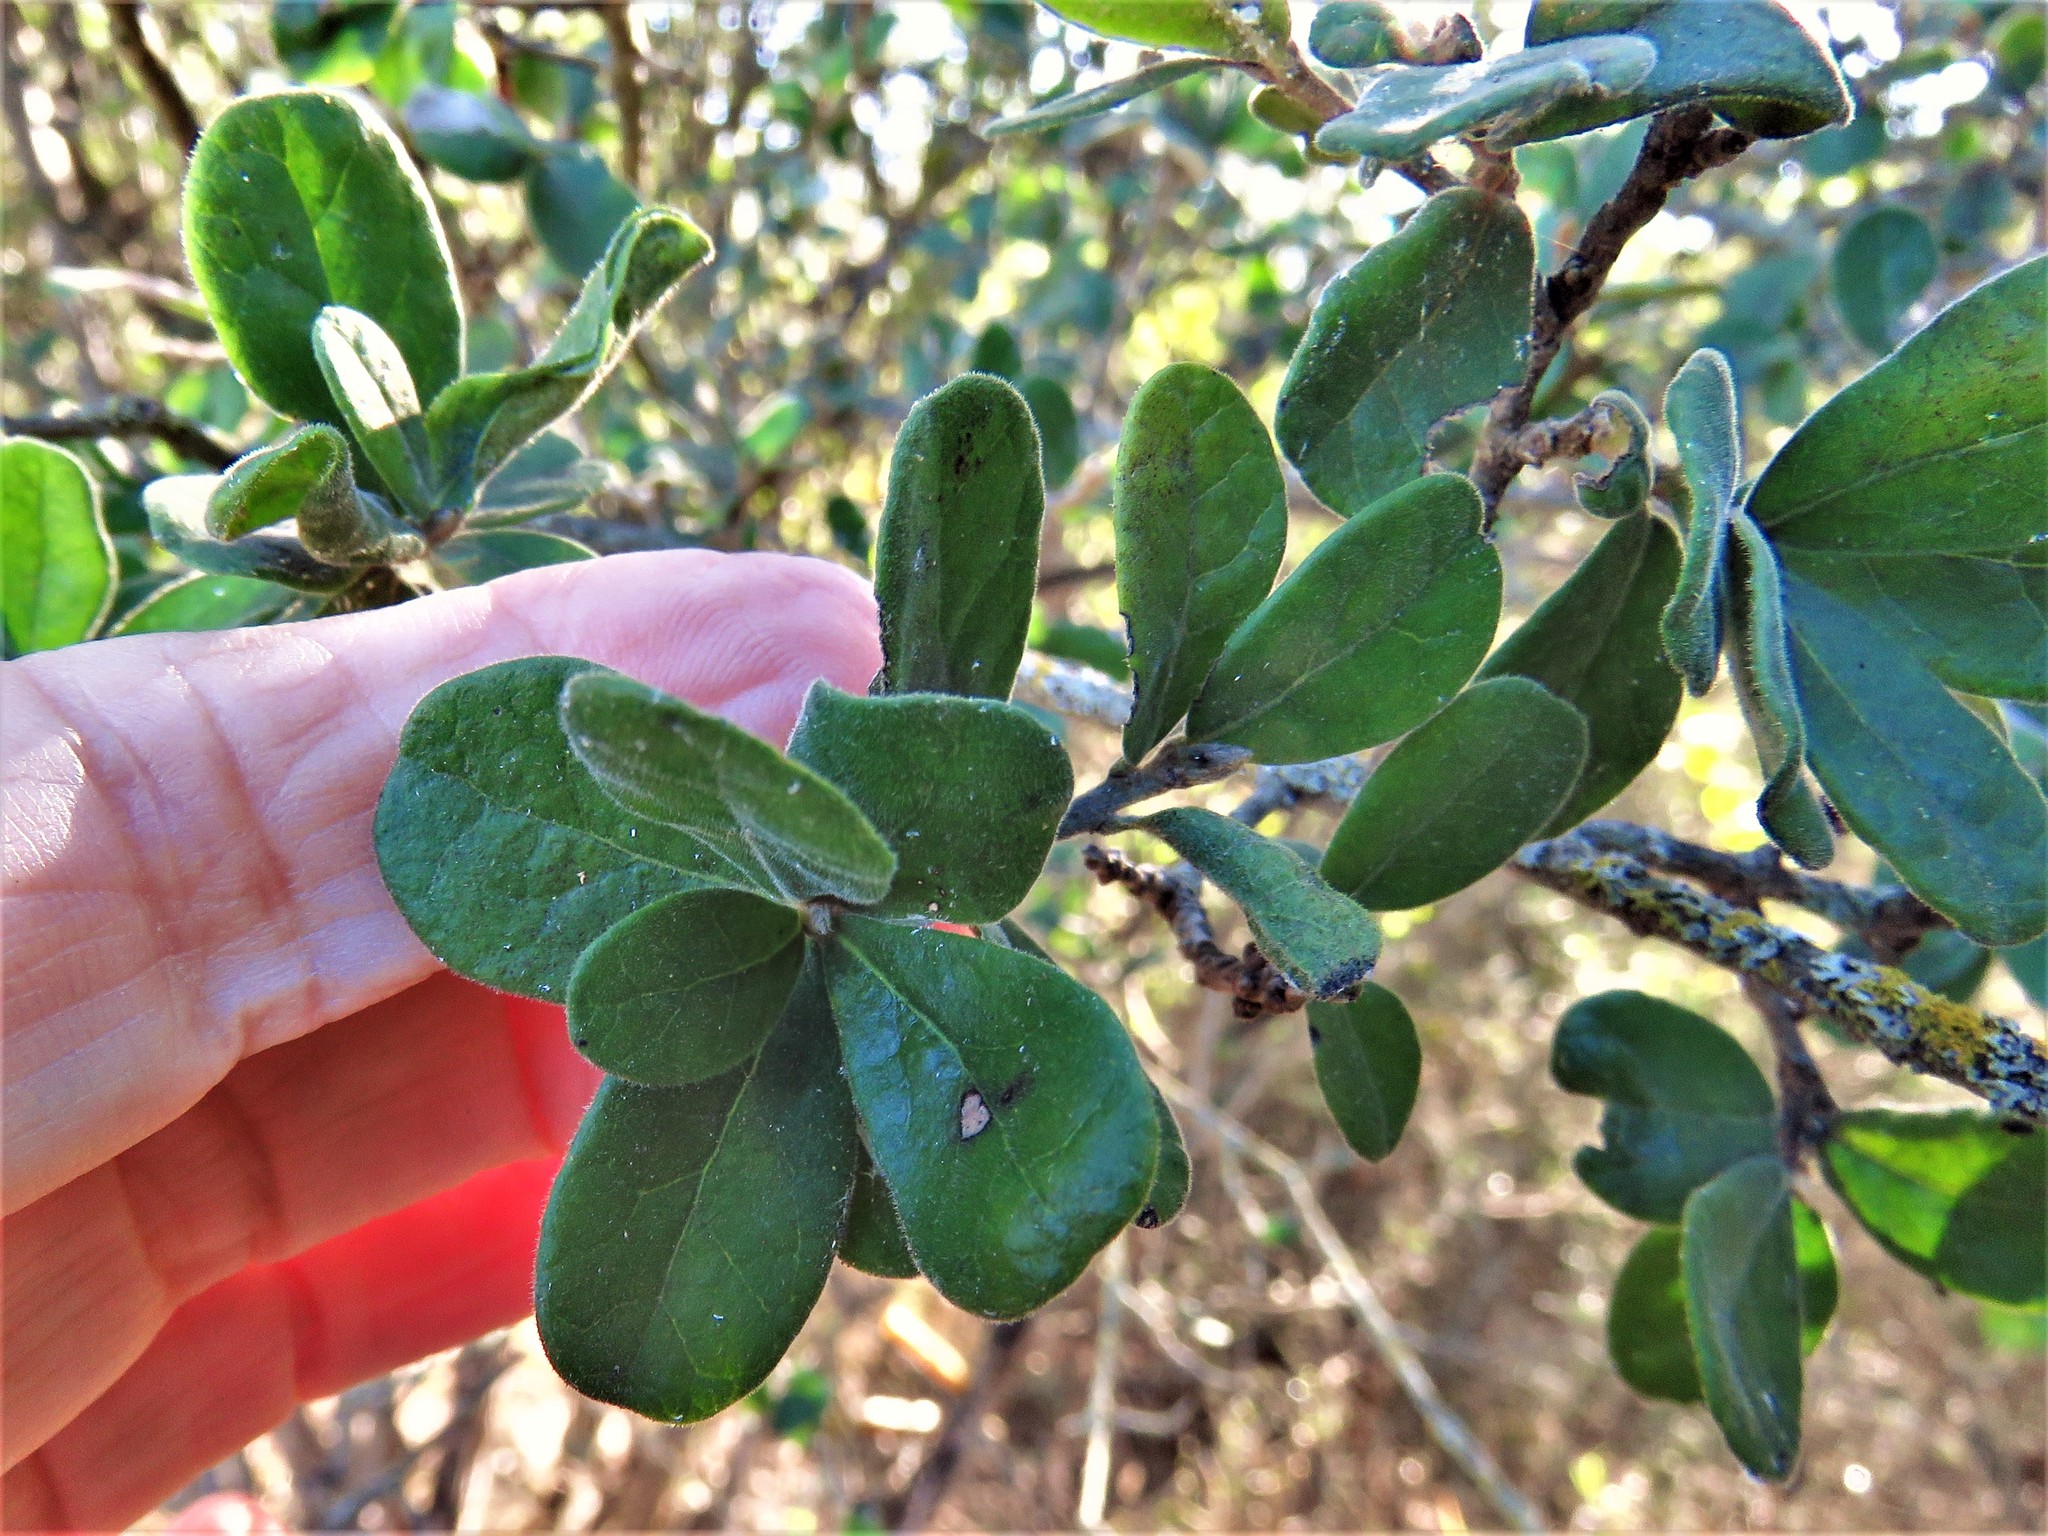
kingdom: Plantae
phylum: Tracheophyta
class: Magnoliopsida
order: Ericales
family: Ebenaceae
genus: Diospyros
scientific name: Diospyros texana
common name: Texas persimmon
